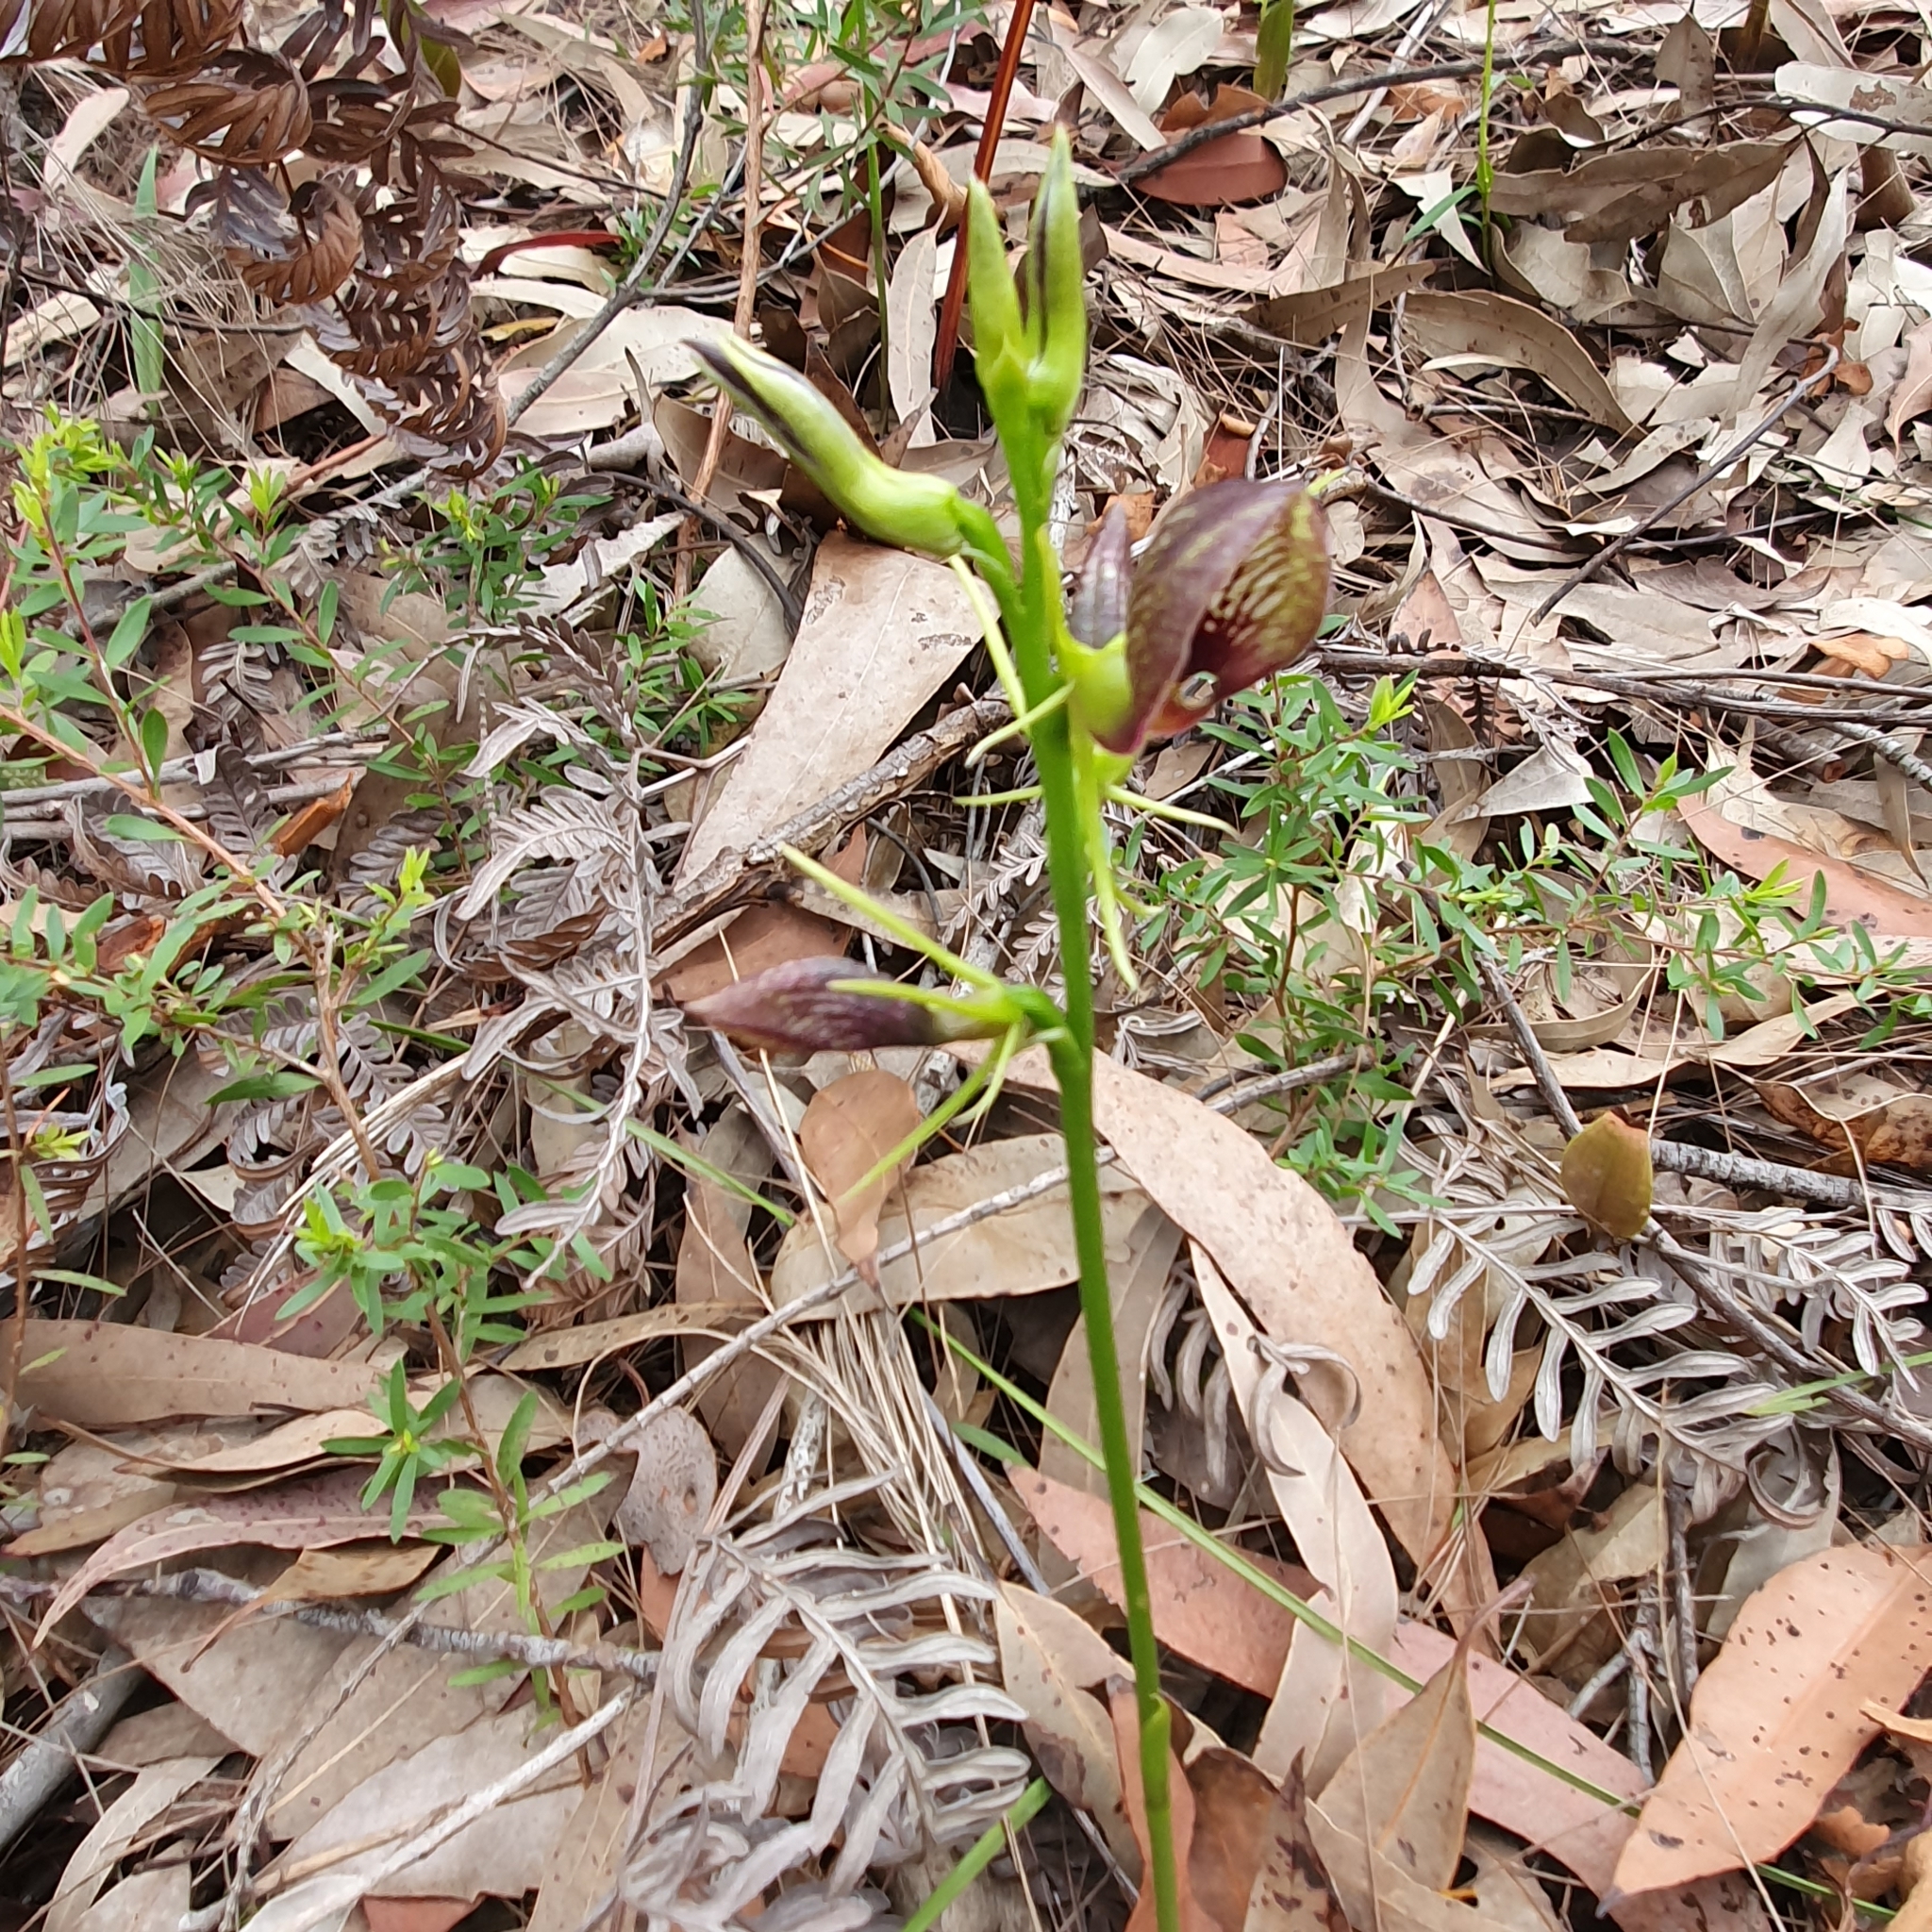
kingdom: Plantae
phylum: Tracheophyta
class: Liliopsida
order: Asparagales
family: Orchidaceae
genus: Cryptostylis
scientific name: Cryptostylis erecta
